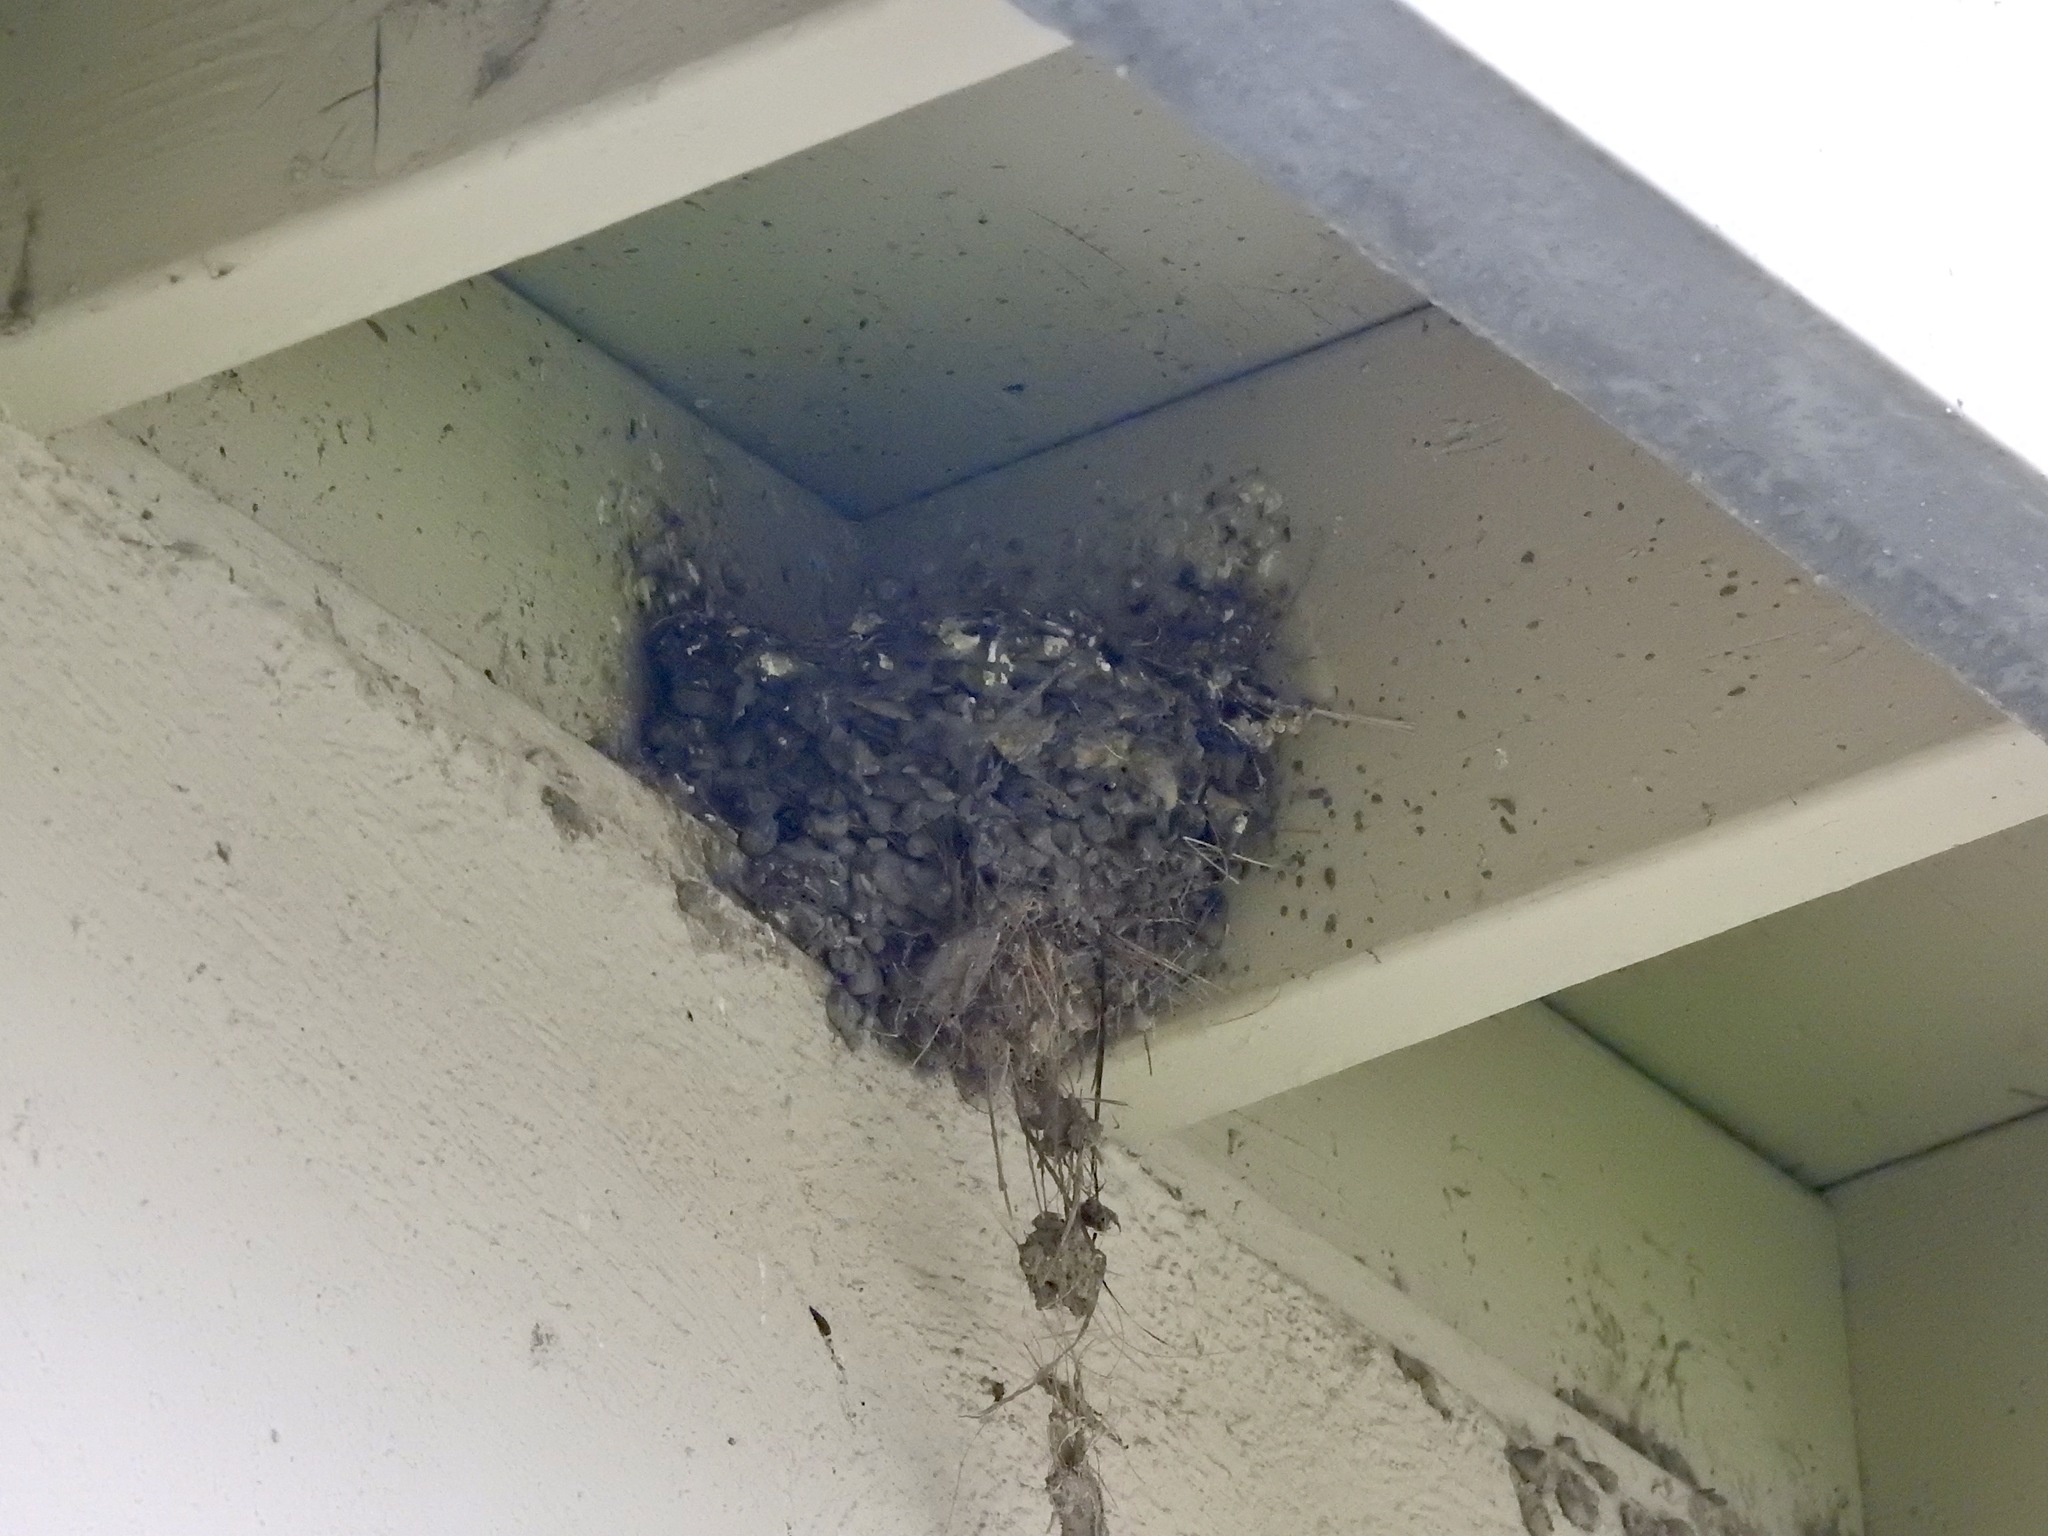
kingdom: Animalia
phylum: Chordata
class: Aves
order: Passeriformes
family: Tyrannidae
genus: Sayornis
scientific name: Sayornis saya
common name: Say's phoebe
